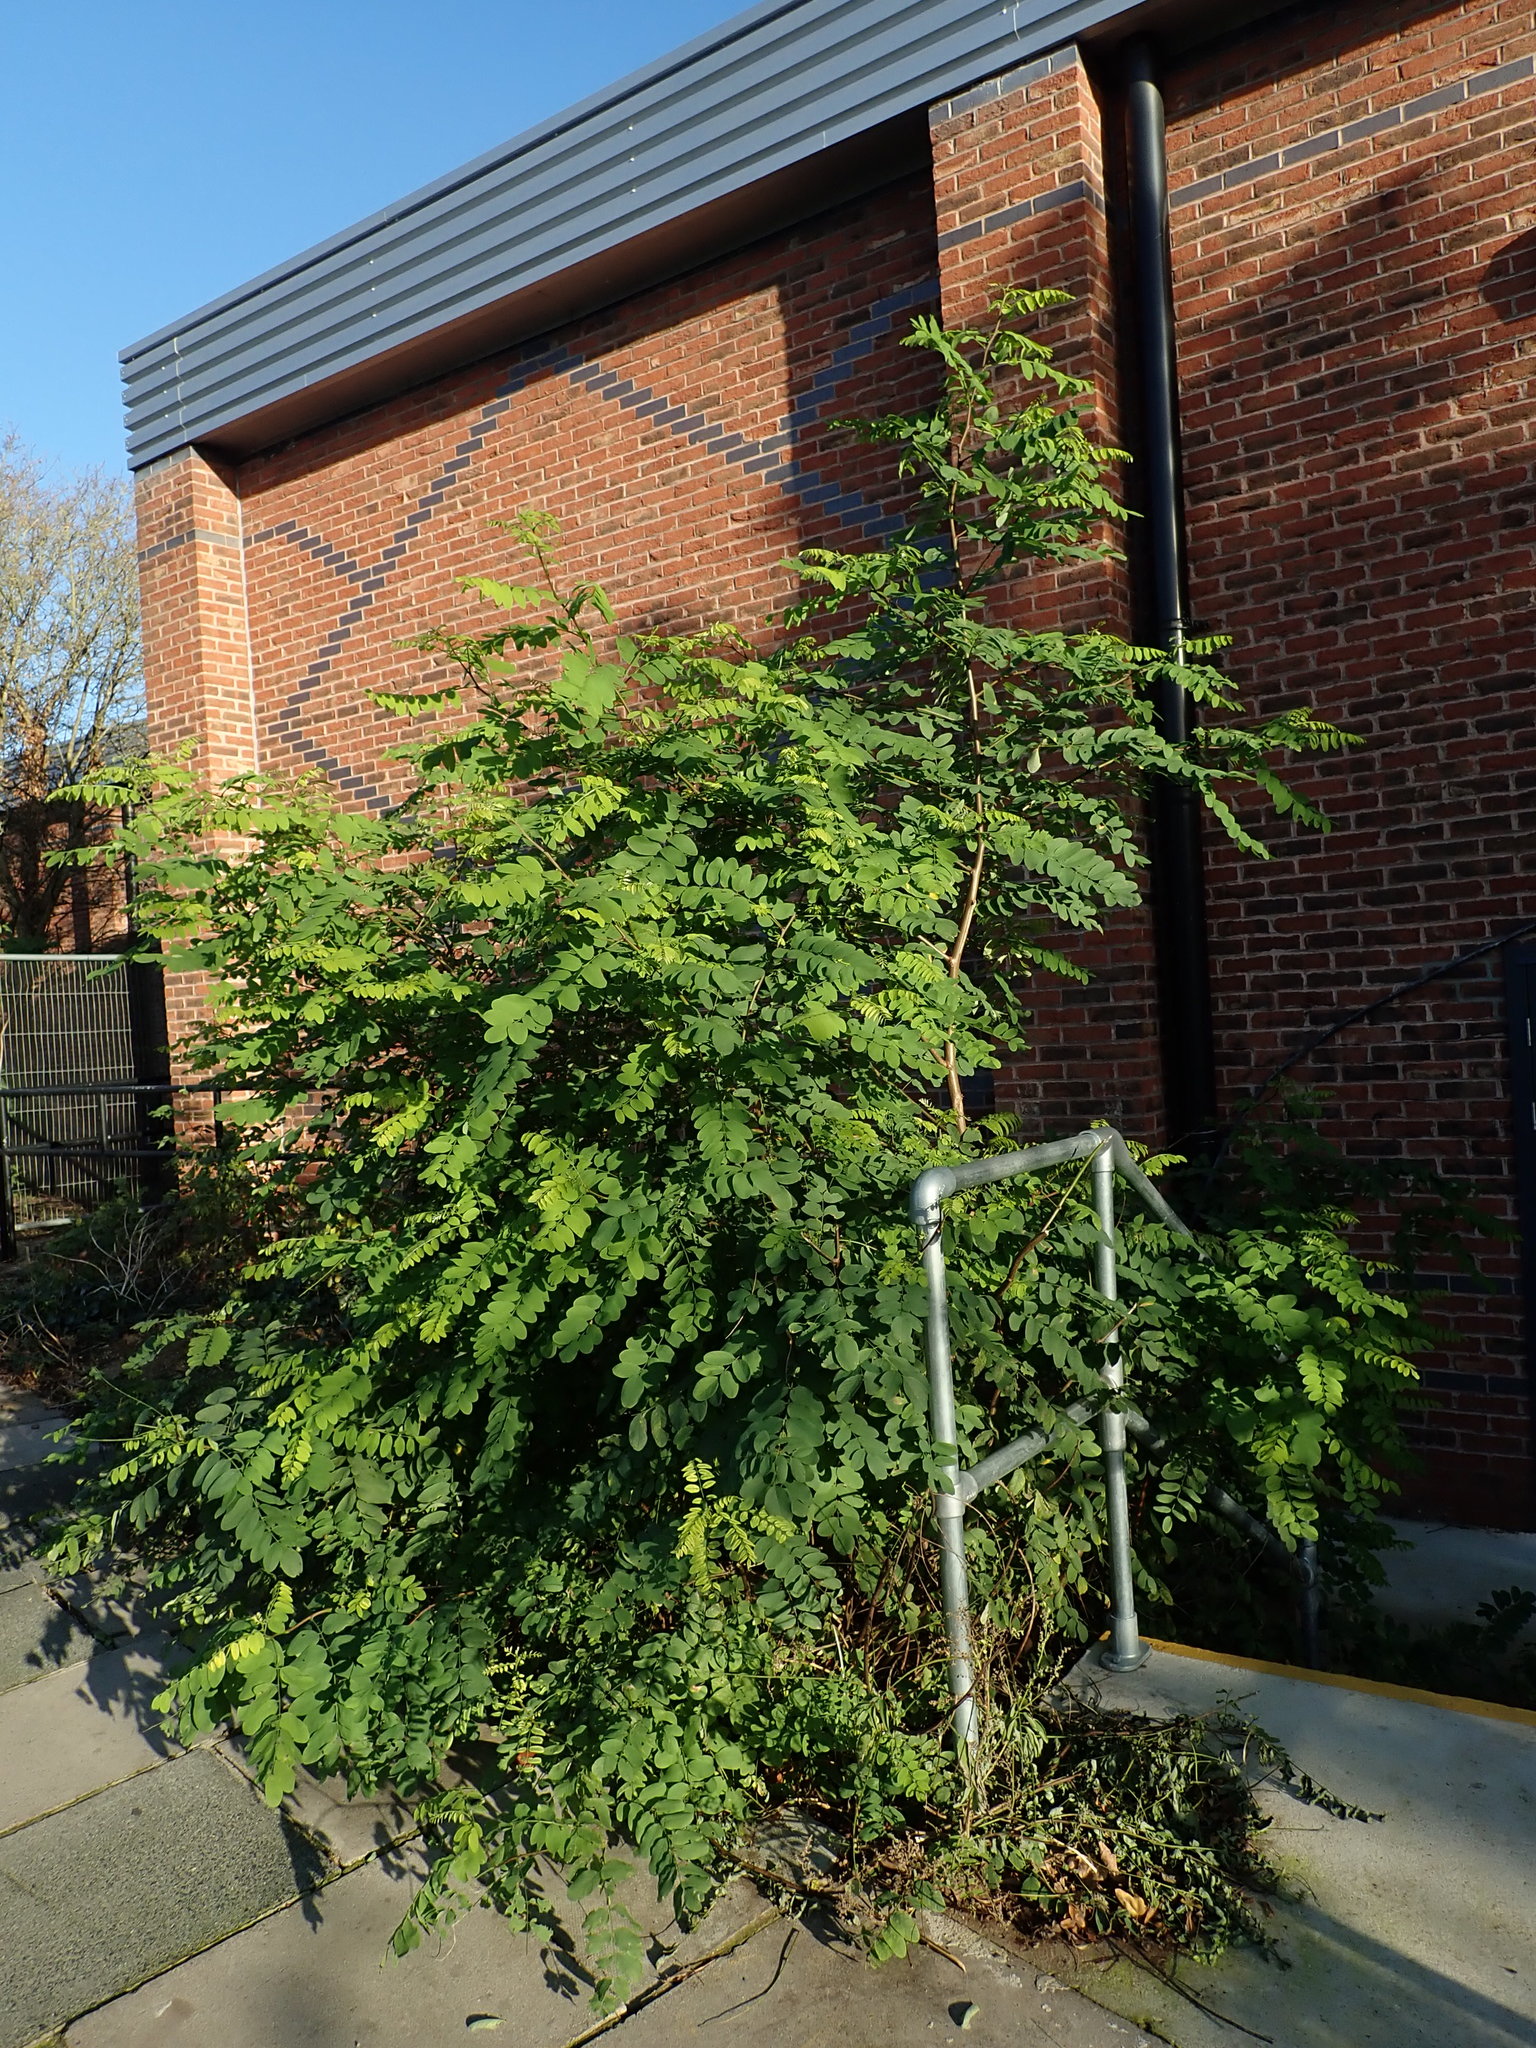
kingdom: Plantae
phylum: Tracheophyta
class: Magnoliopsida
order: Fabales
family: Fabaceae
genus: Robinia
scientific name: Robinia pseudoacacia
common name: Black locust
